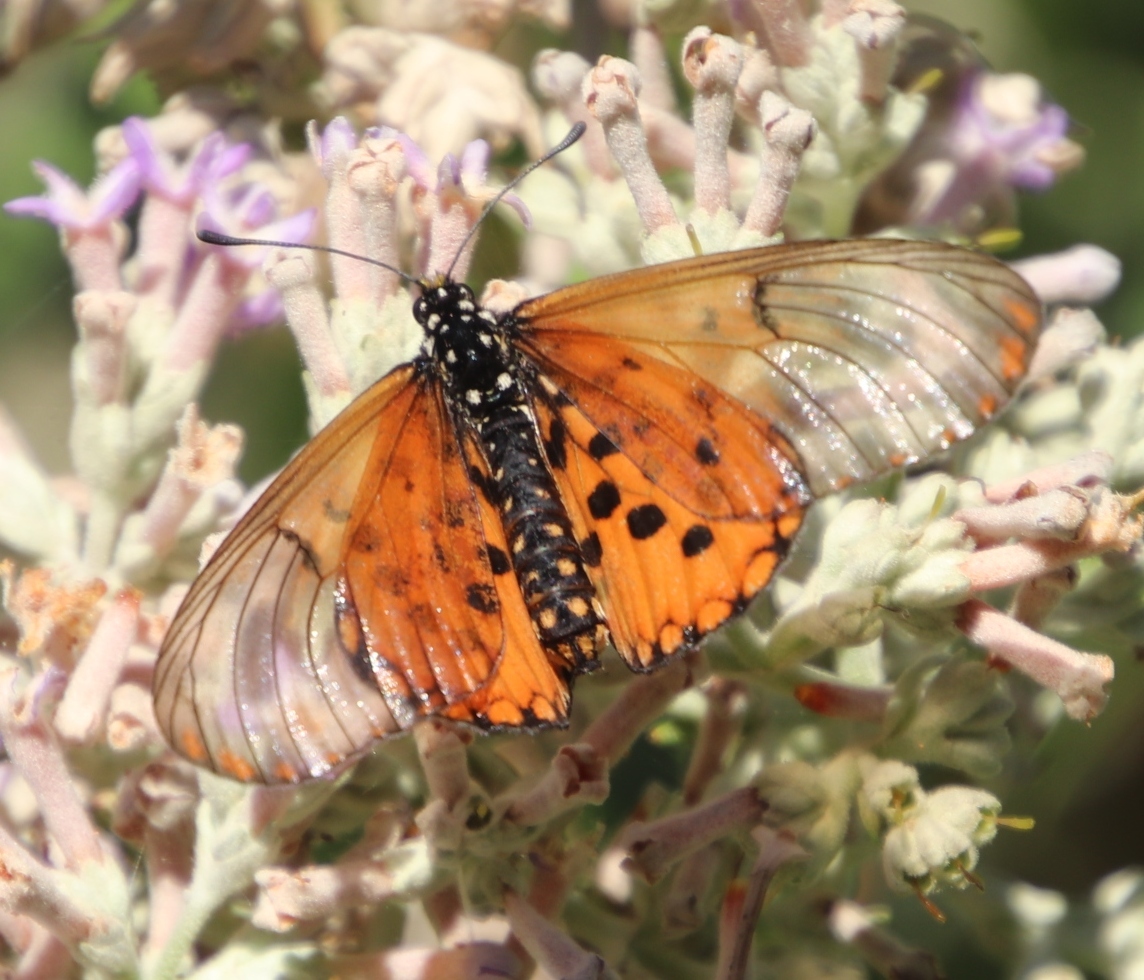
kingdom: Animalia
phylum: Arthropoda
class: Insecta
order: Lepidoptera
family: Nymphalidae
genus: Acraea
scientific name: Acraea horta
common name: Garden acraea
